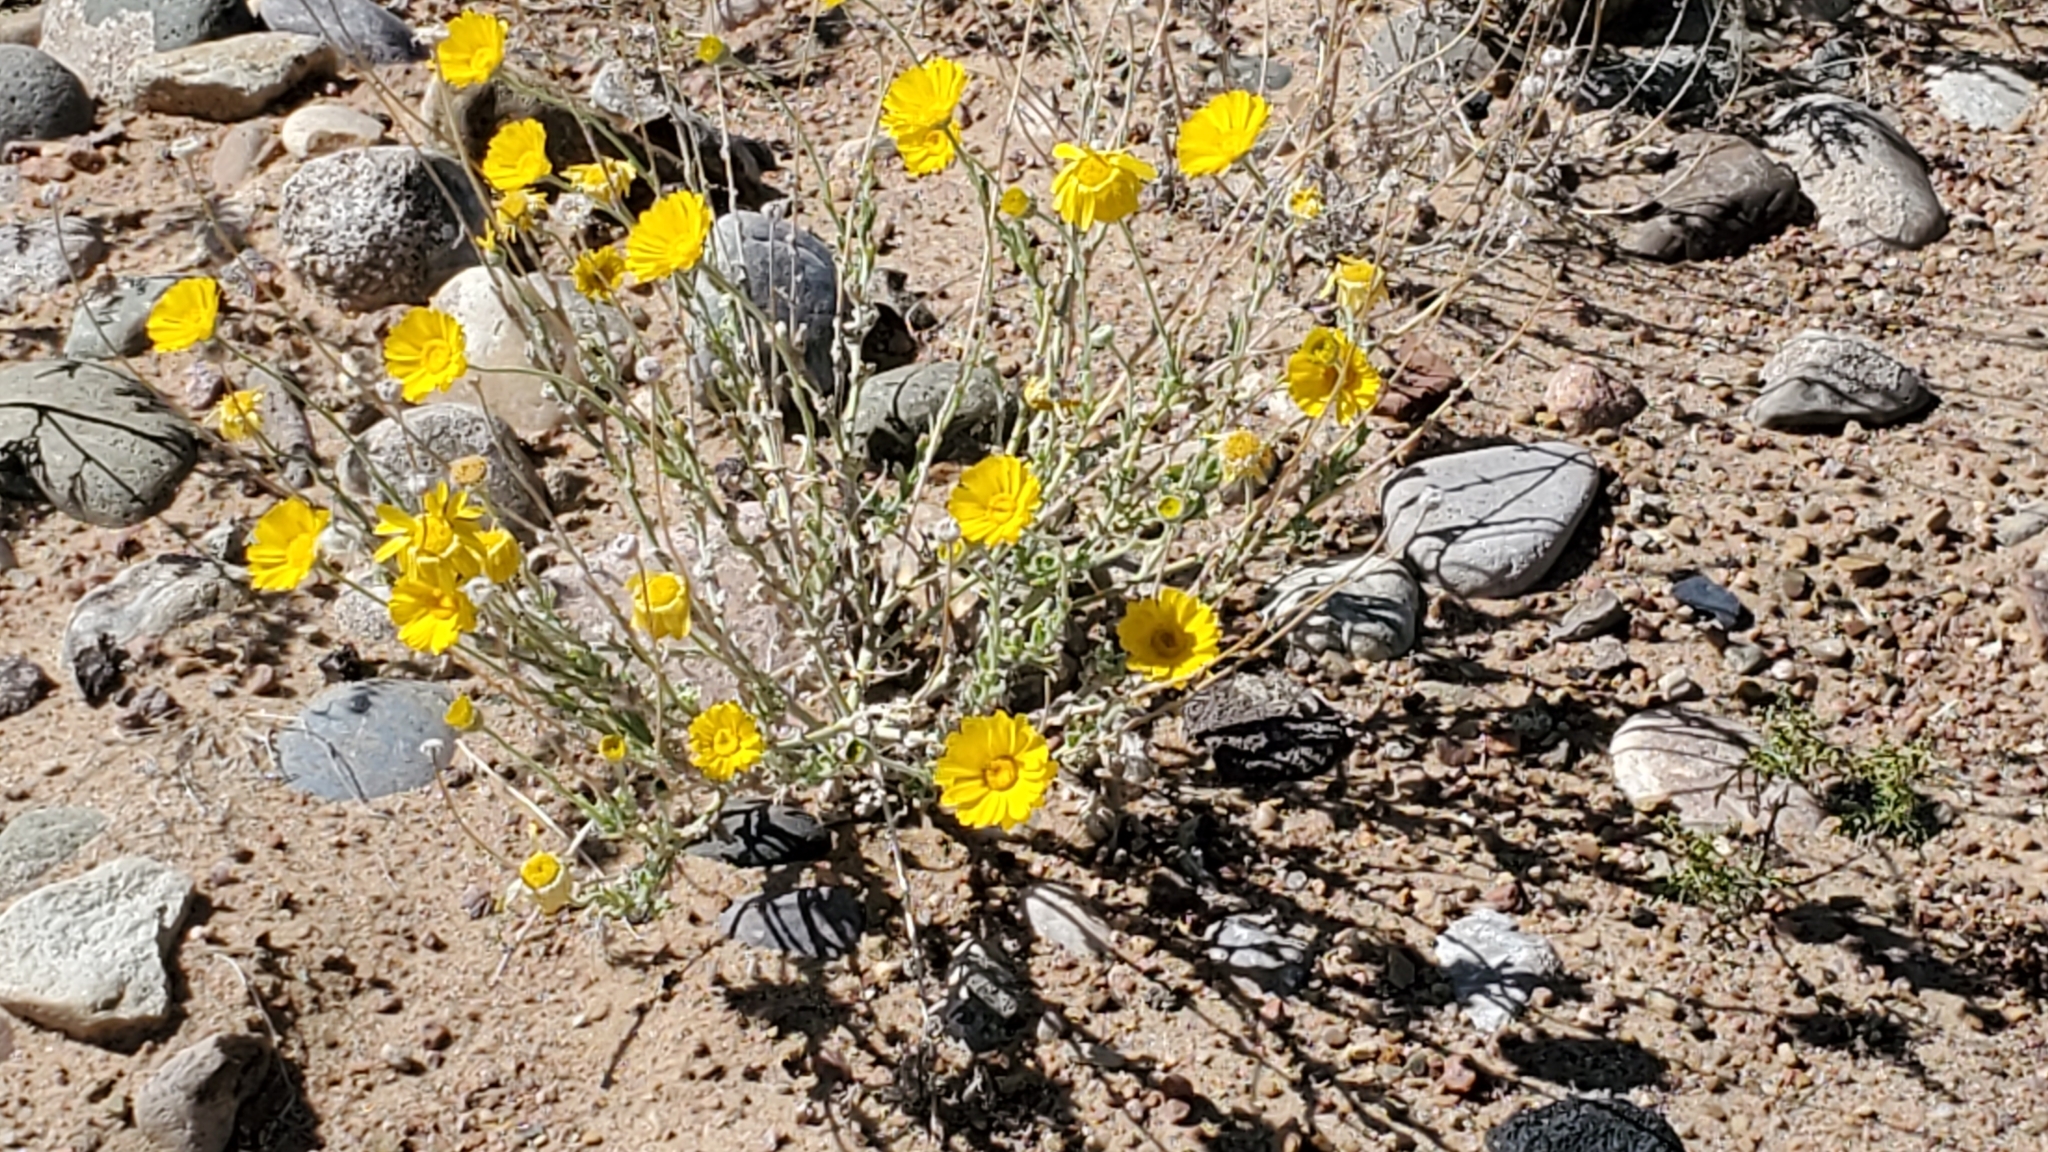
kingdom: Plantae
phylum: Tracheophyta
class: Magnoliopsida
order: Asterales
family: Asteraceae
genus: Baileya
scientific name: Baileya multiradiata
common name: Desert-marigold
